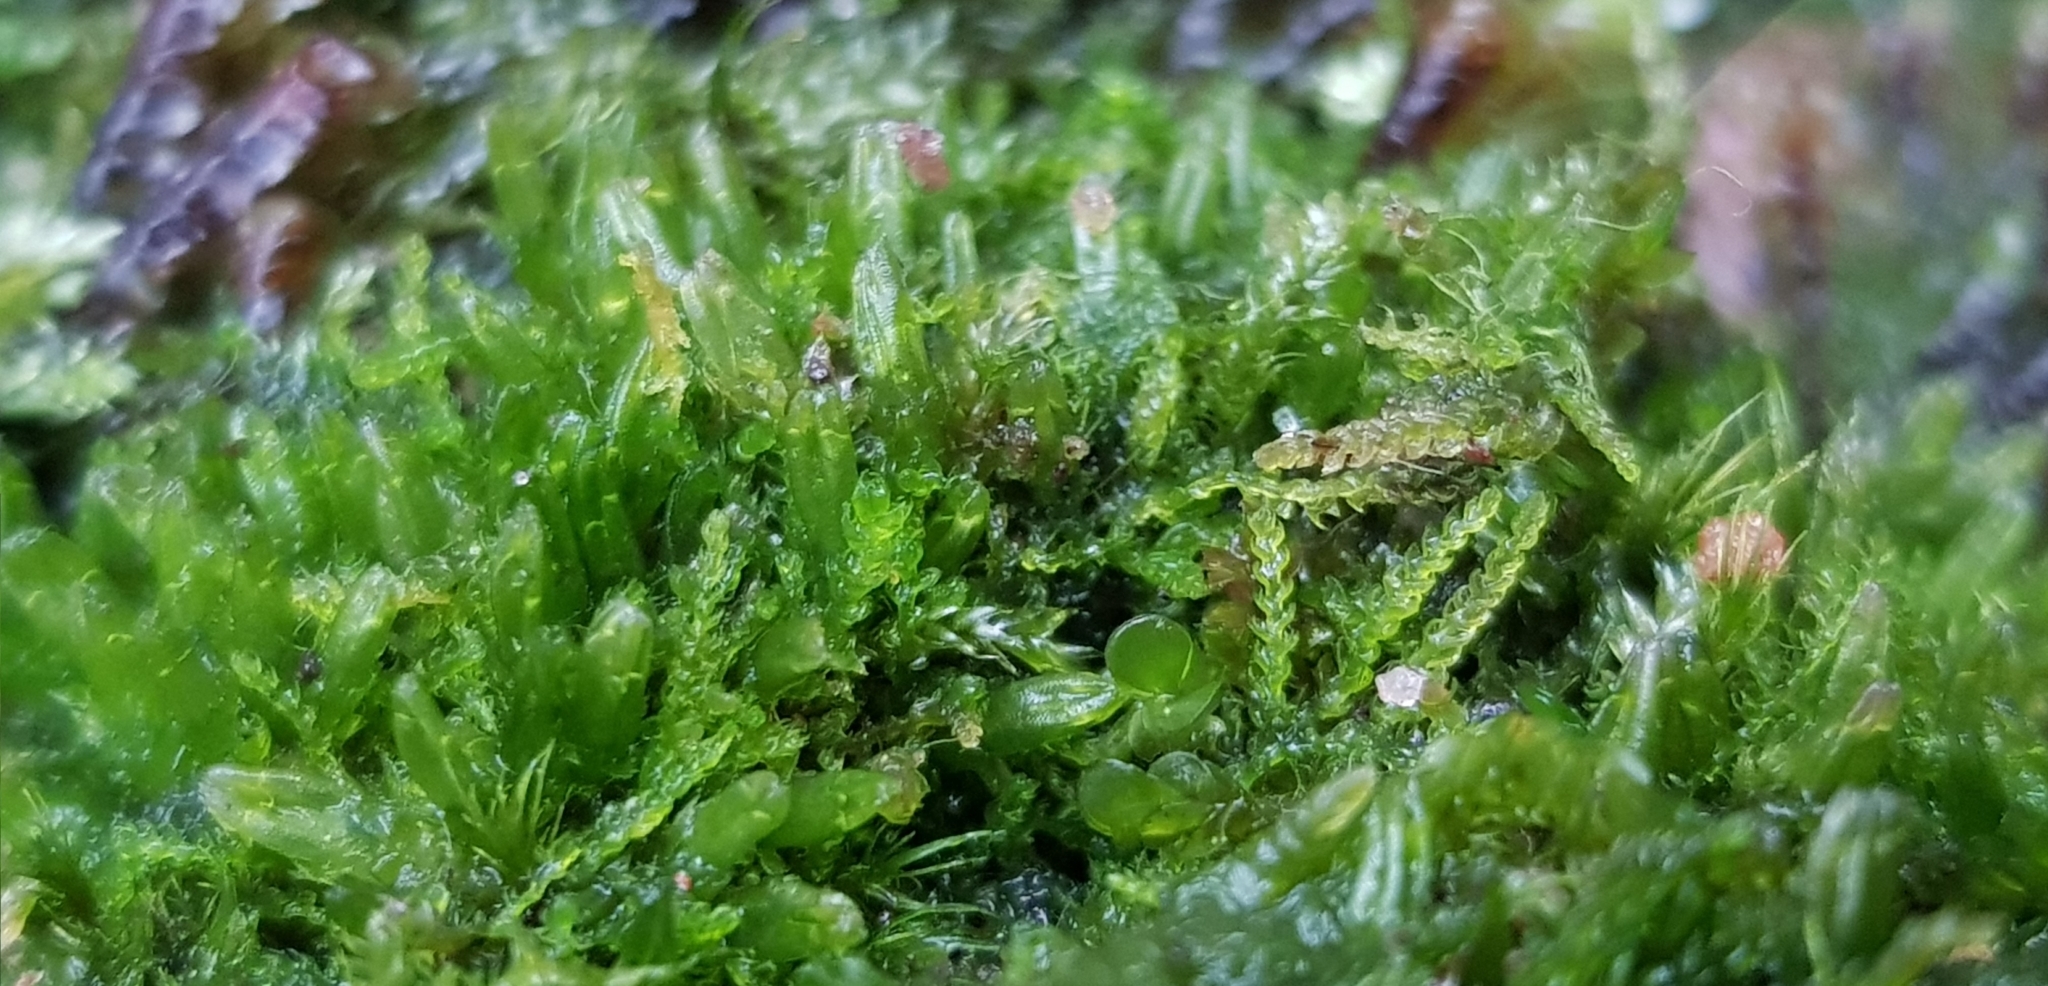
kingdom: Plantae
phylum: Marchantiophyta
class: Jungermanniopsida
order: Jungermanniales
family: Cephaloziaceae
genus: Cephalozia
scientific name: Cephalozia bicuspidata
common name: Two-horned pincerwort
